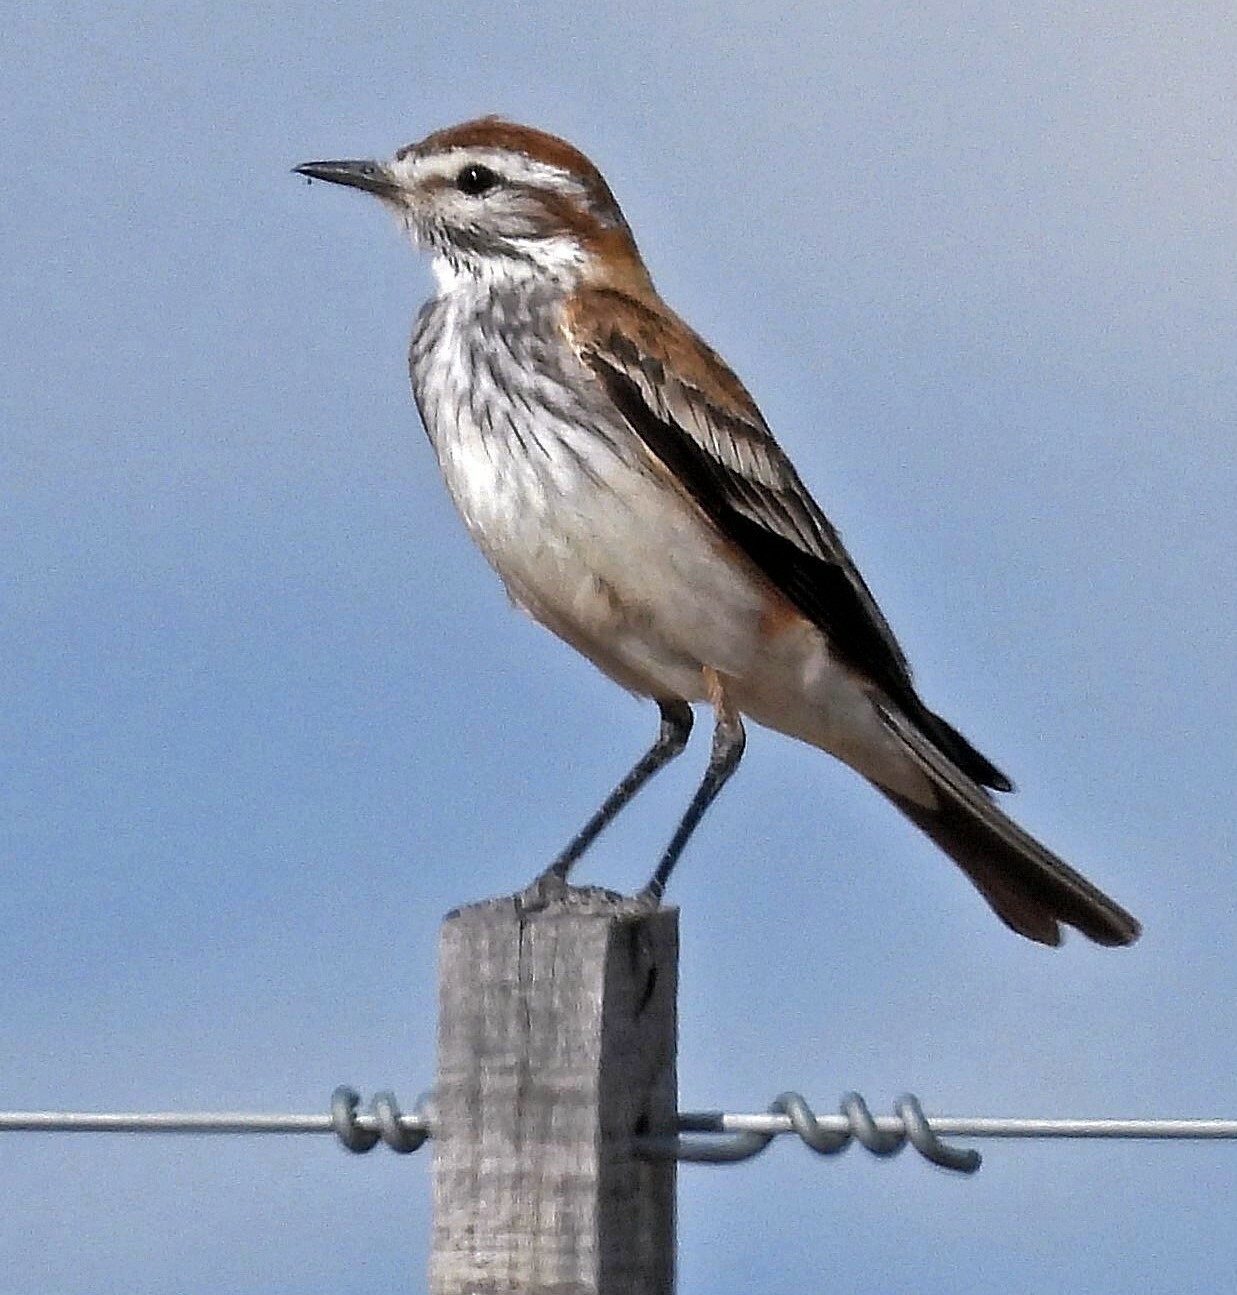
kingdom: Animalia
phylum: Chordata
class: Aves
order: Passeriformes
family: Tyrannidae
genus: Xolmis
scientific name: Xolmis rubetra
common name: Rusty-backed monjita
